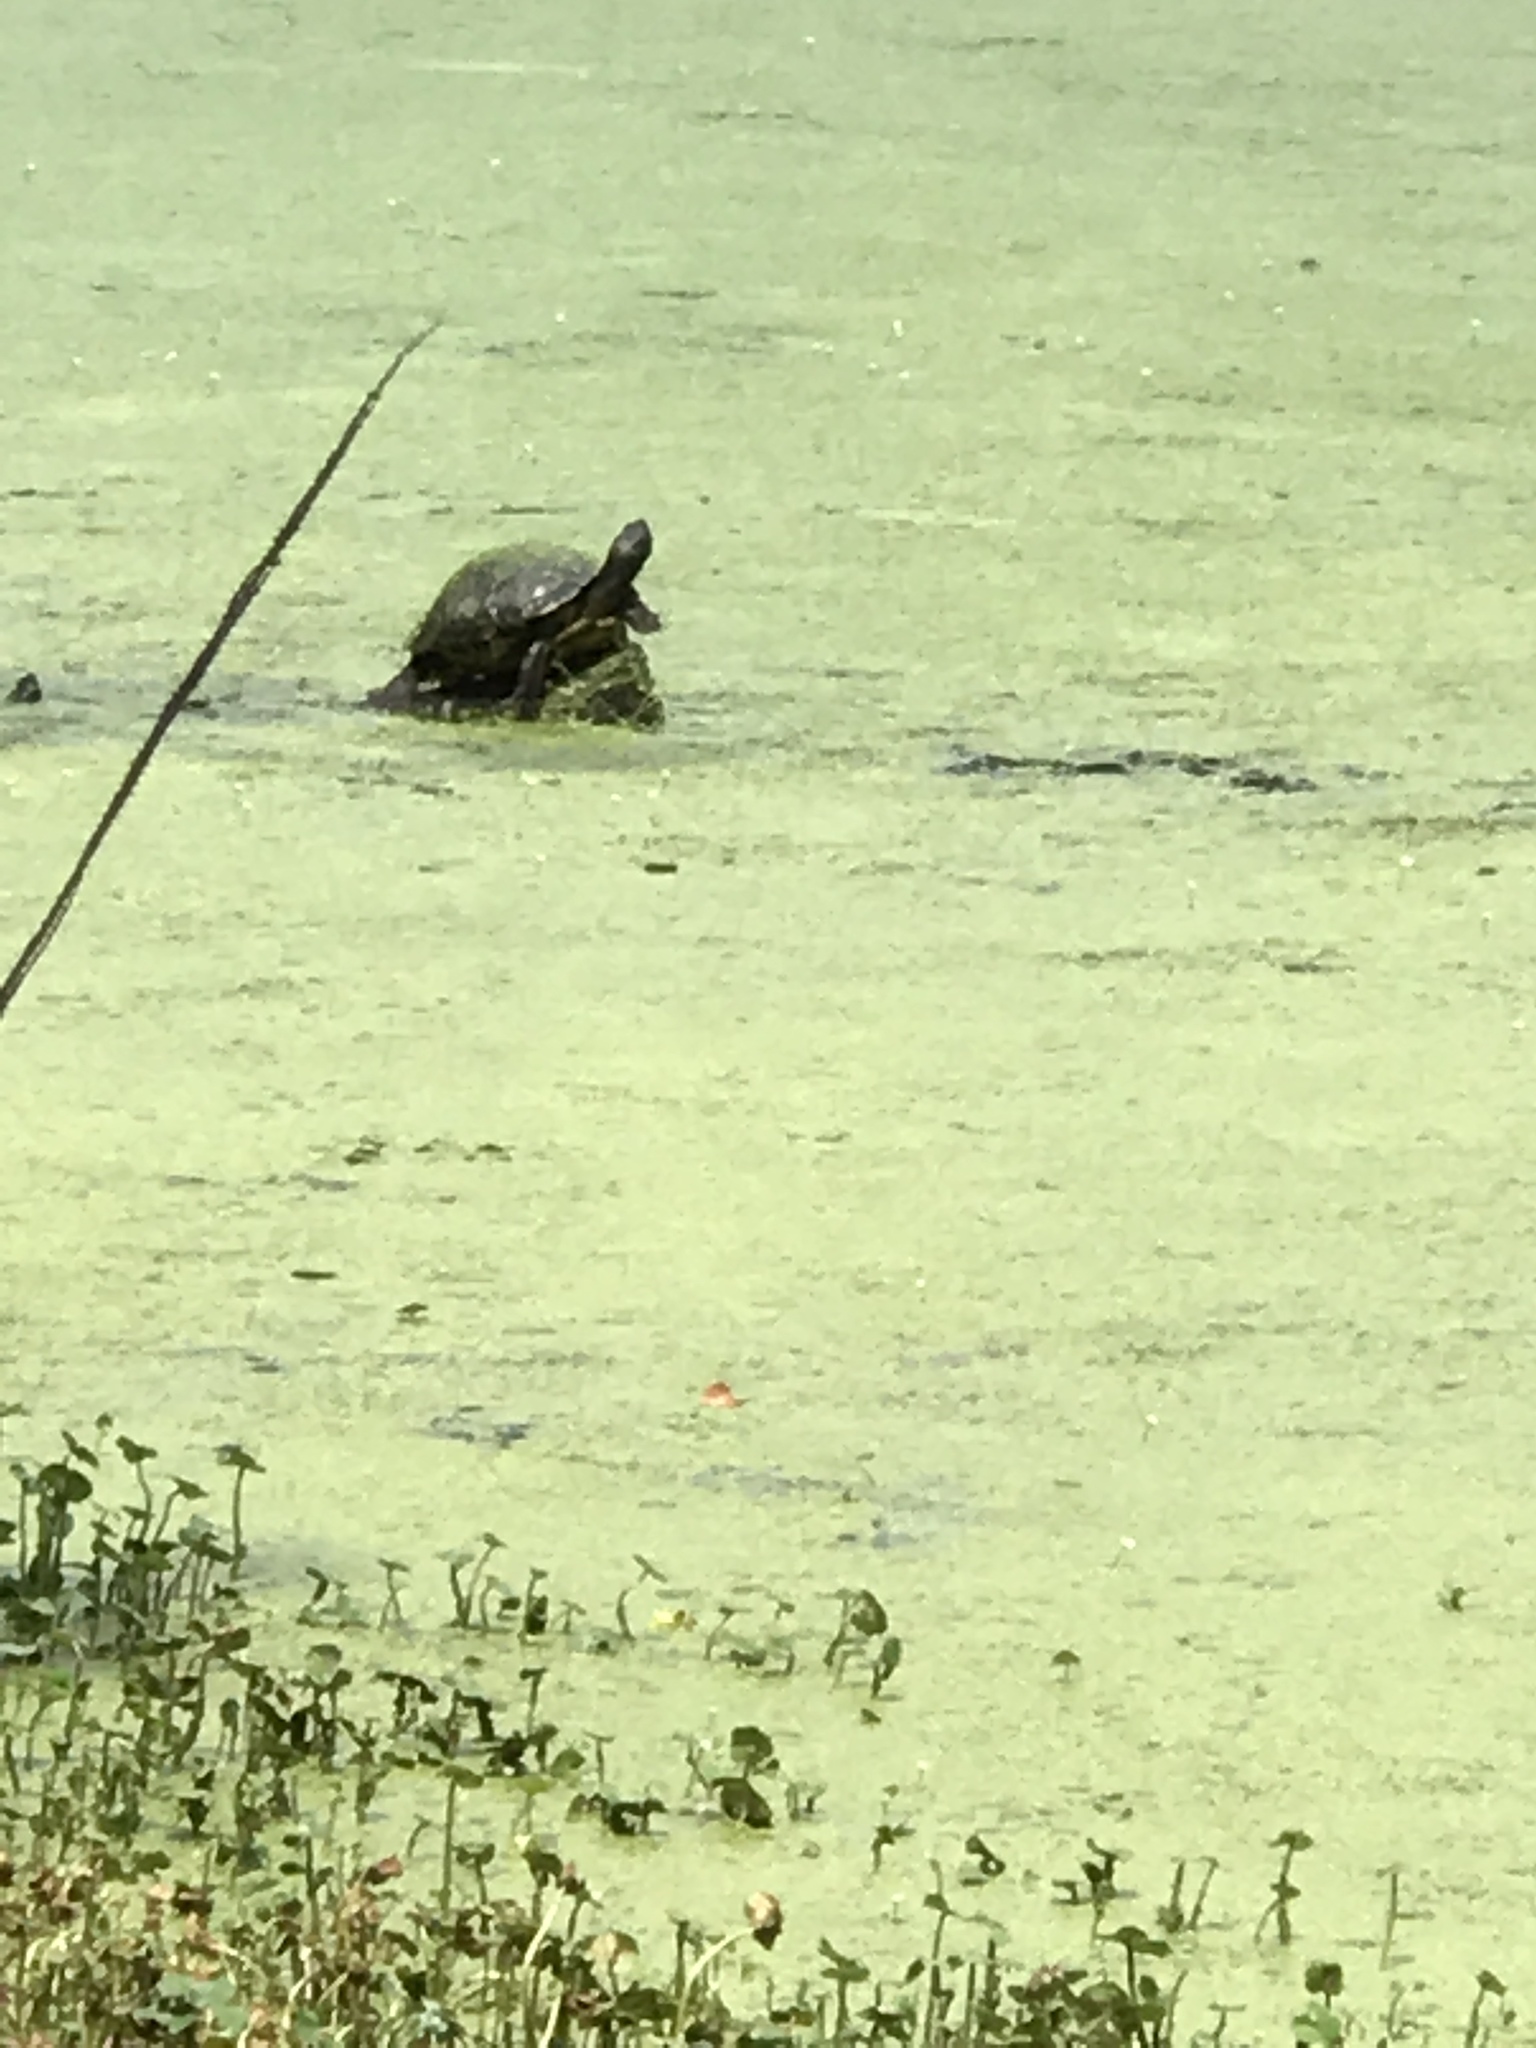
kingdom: Animalia
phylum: Chordata
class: Testudines
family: Emydidae
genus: Trachemys
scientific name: Trachemys scripta
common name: Slider
